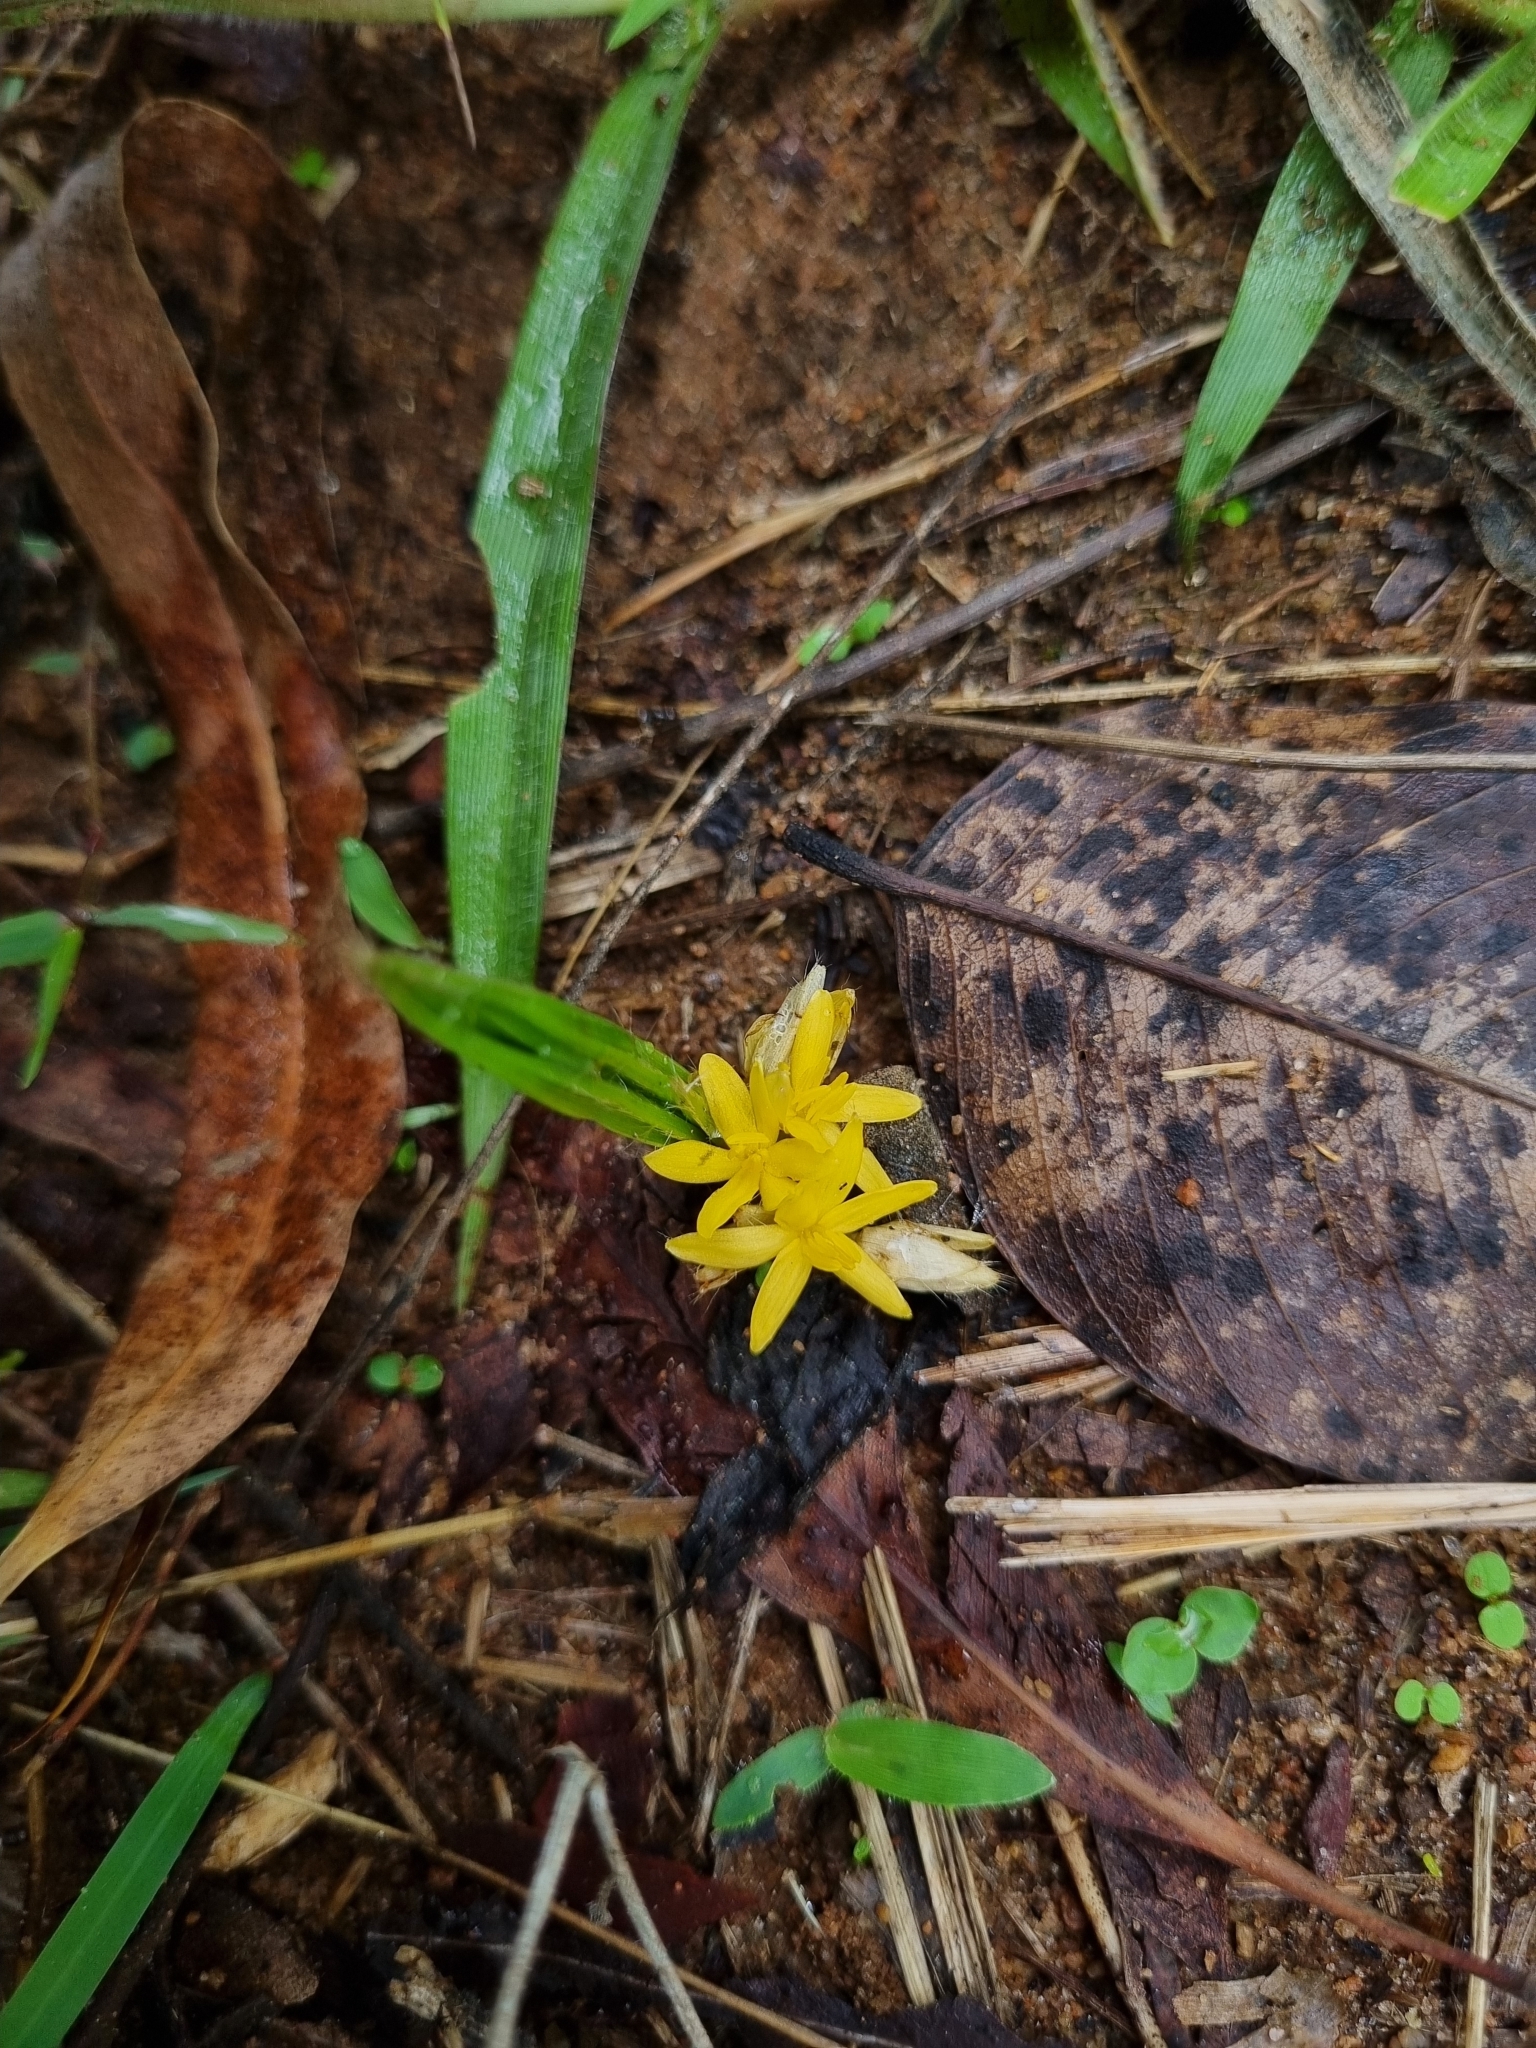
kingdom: Plantae
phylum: Tracheophyta
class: Liliopsida
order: Asparagales
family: Hypoxidaceae
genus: Curculigo
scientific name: Curculigo orchioides
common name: Golden eye-grass
